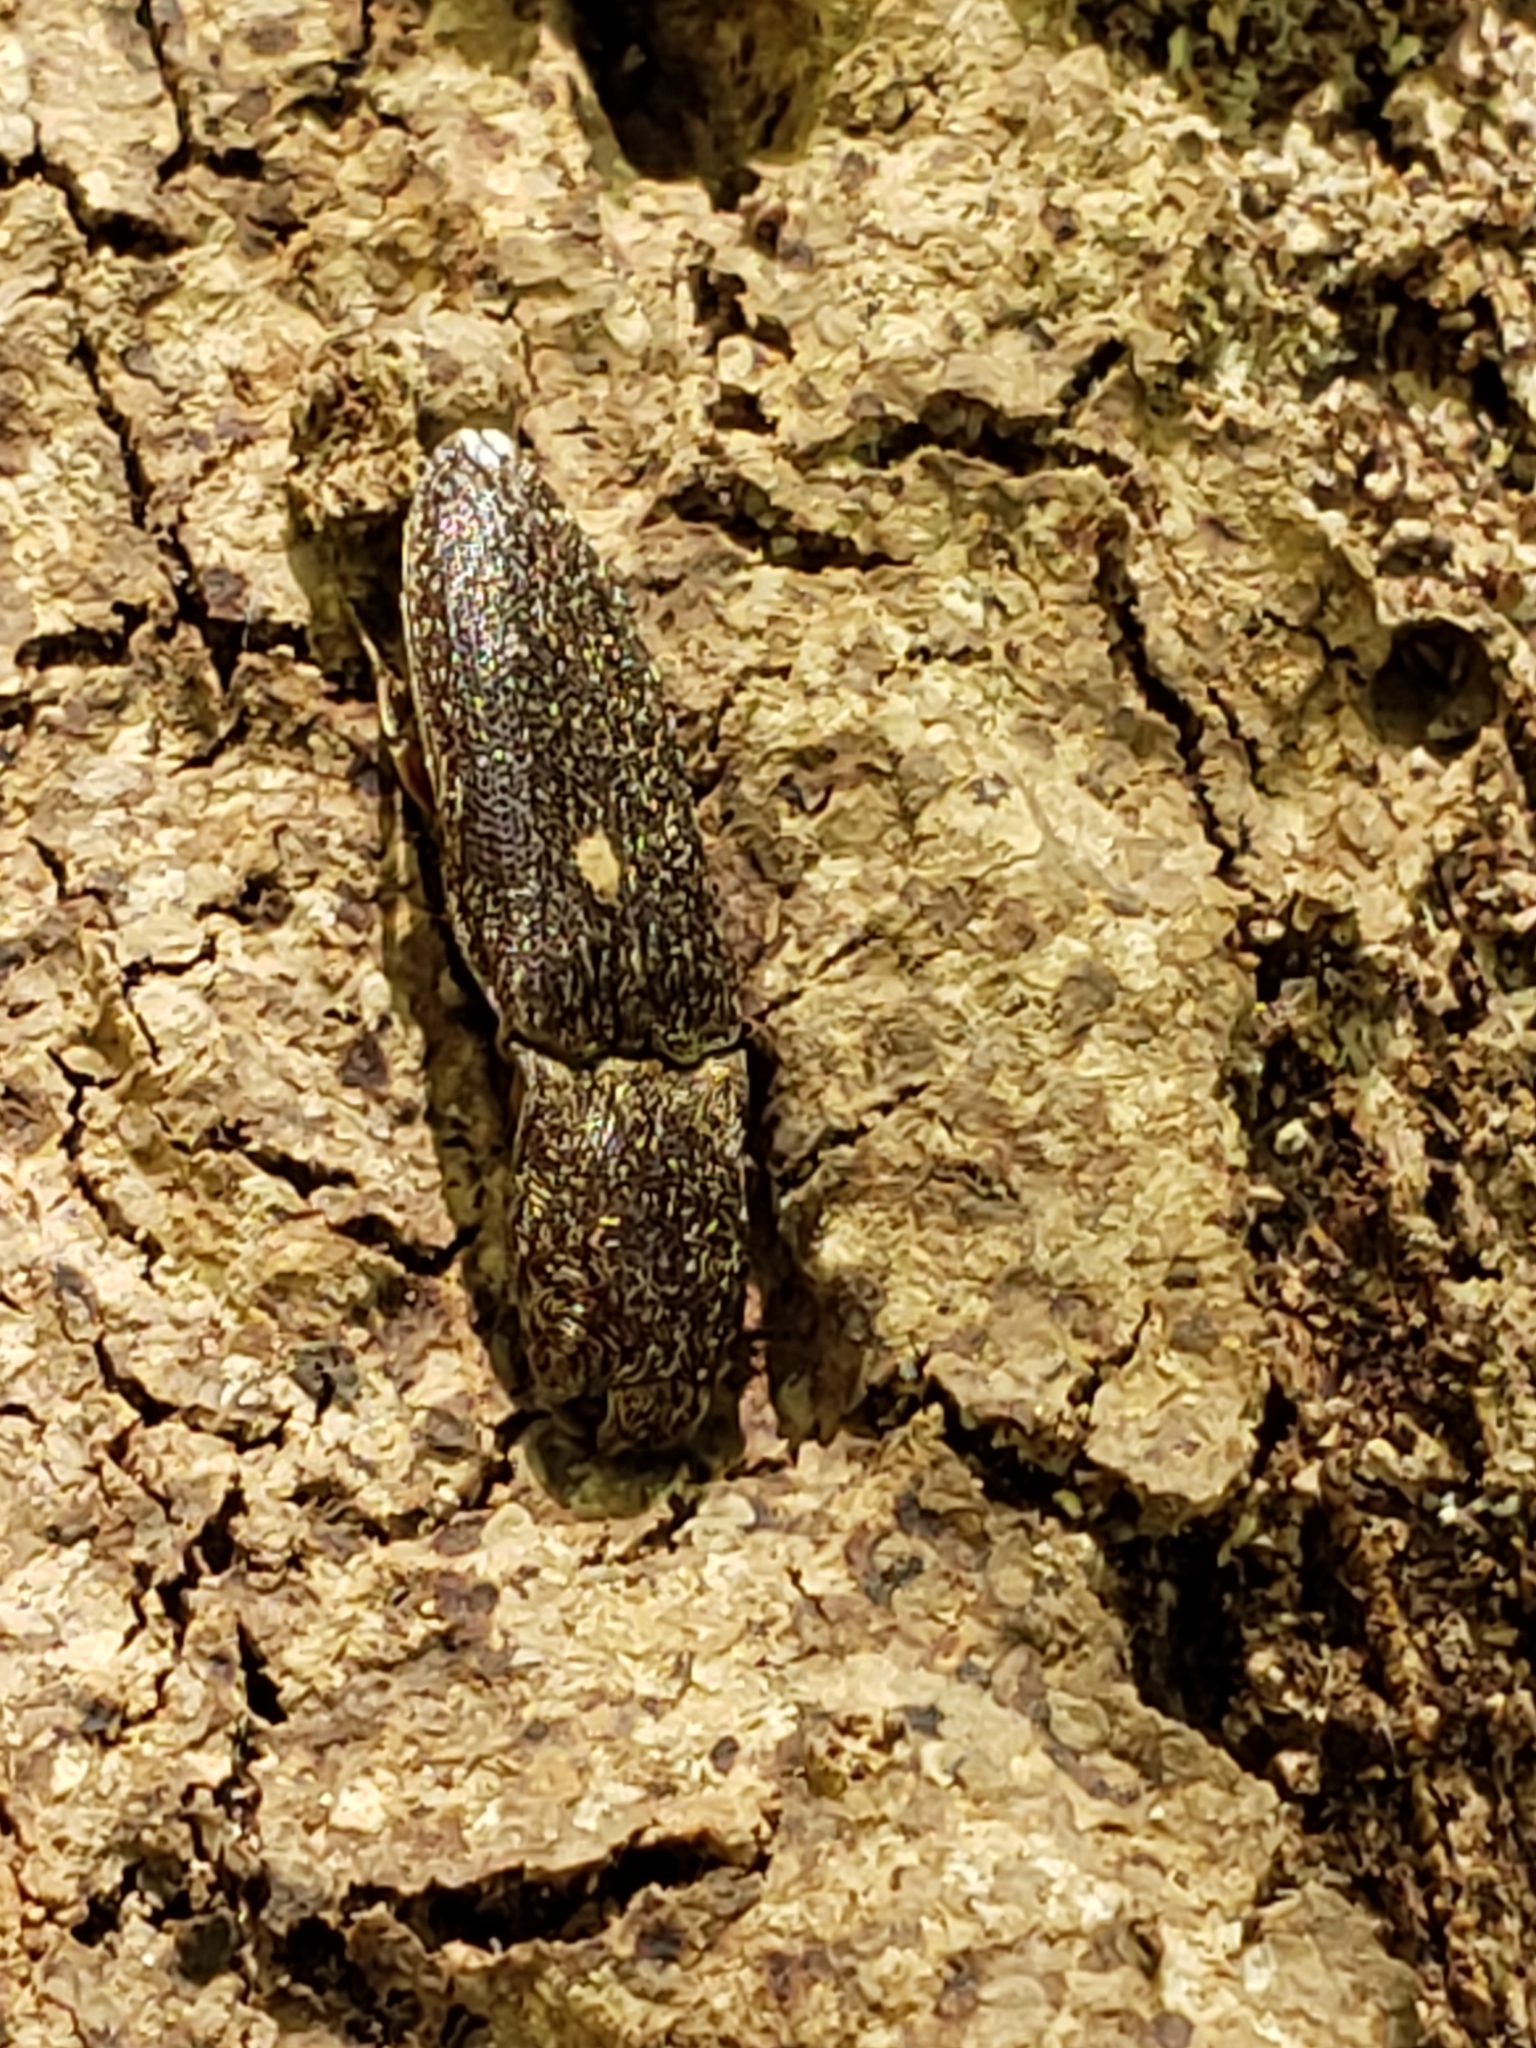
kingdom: Animalia
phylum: Arthropoda
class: Insecta
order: Coleoptera
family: Elateridae
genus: Lacon
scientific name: Lacon impressicollis
